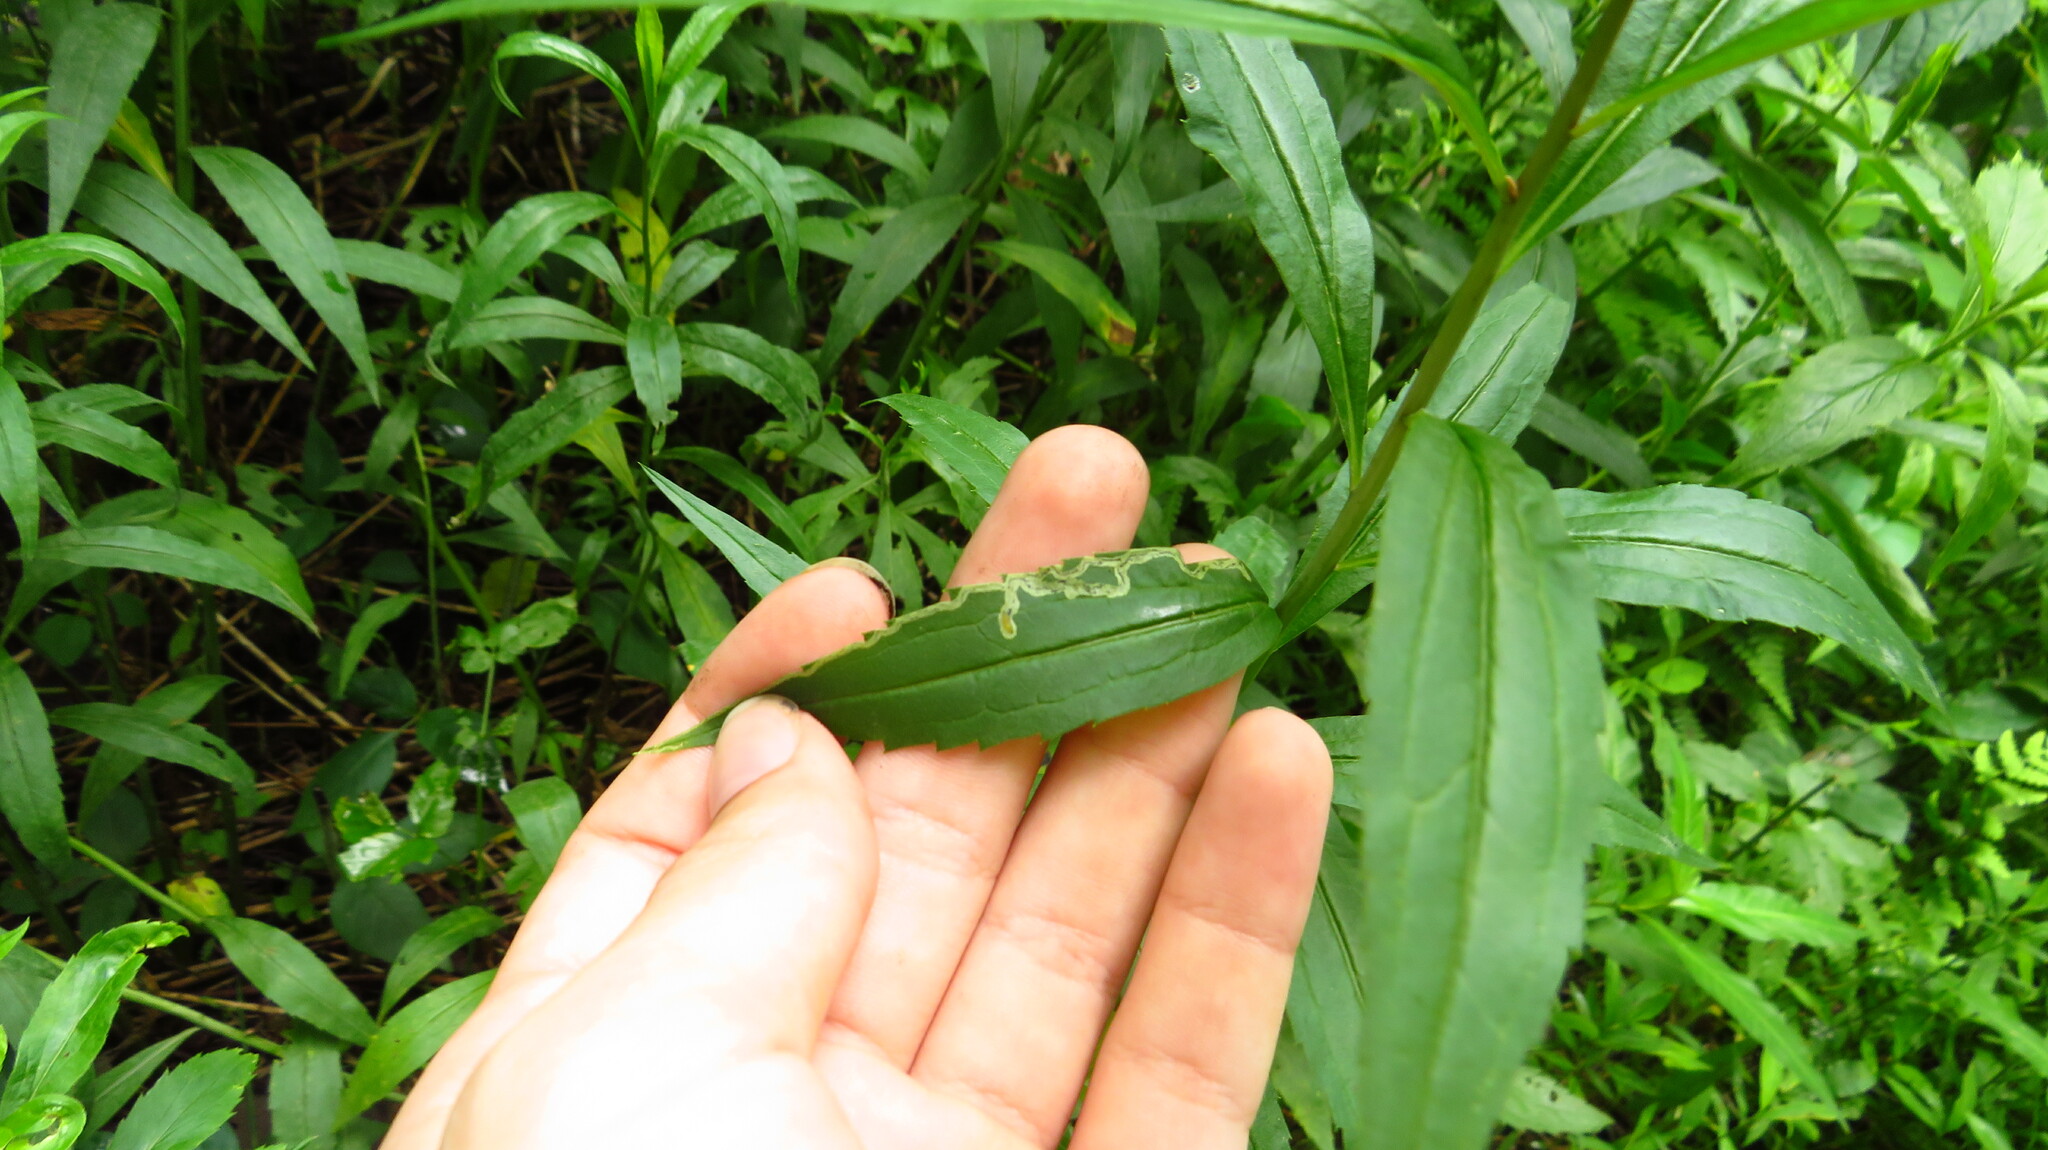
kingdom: Animalia
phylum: Arthropoda
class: Insecta
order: Diptera
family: Agromyzidae
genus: Liriomyza
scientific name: Liriomyza eupatorii
